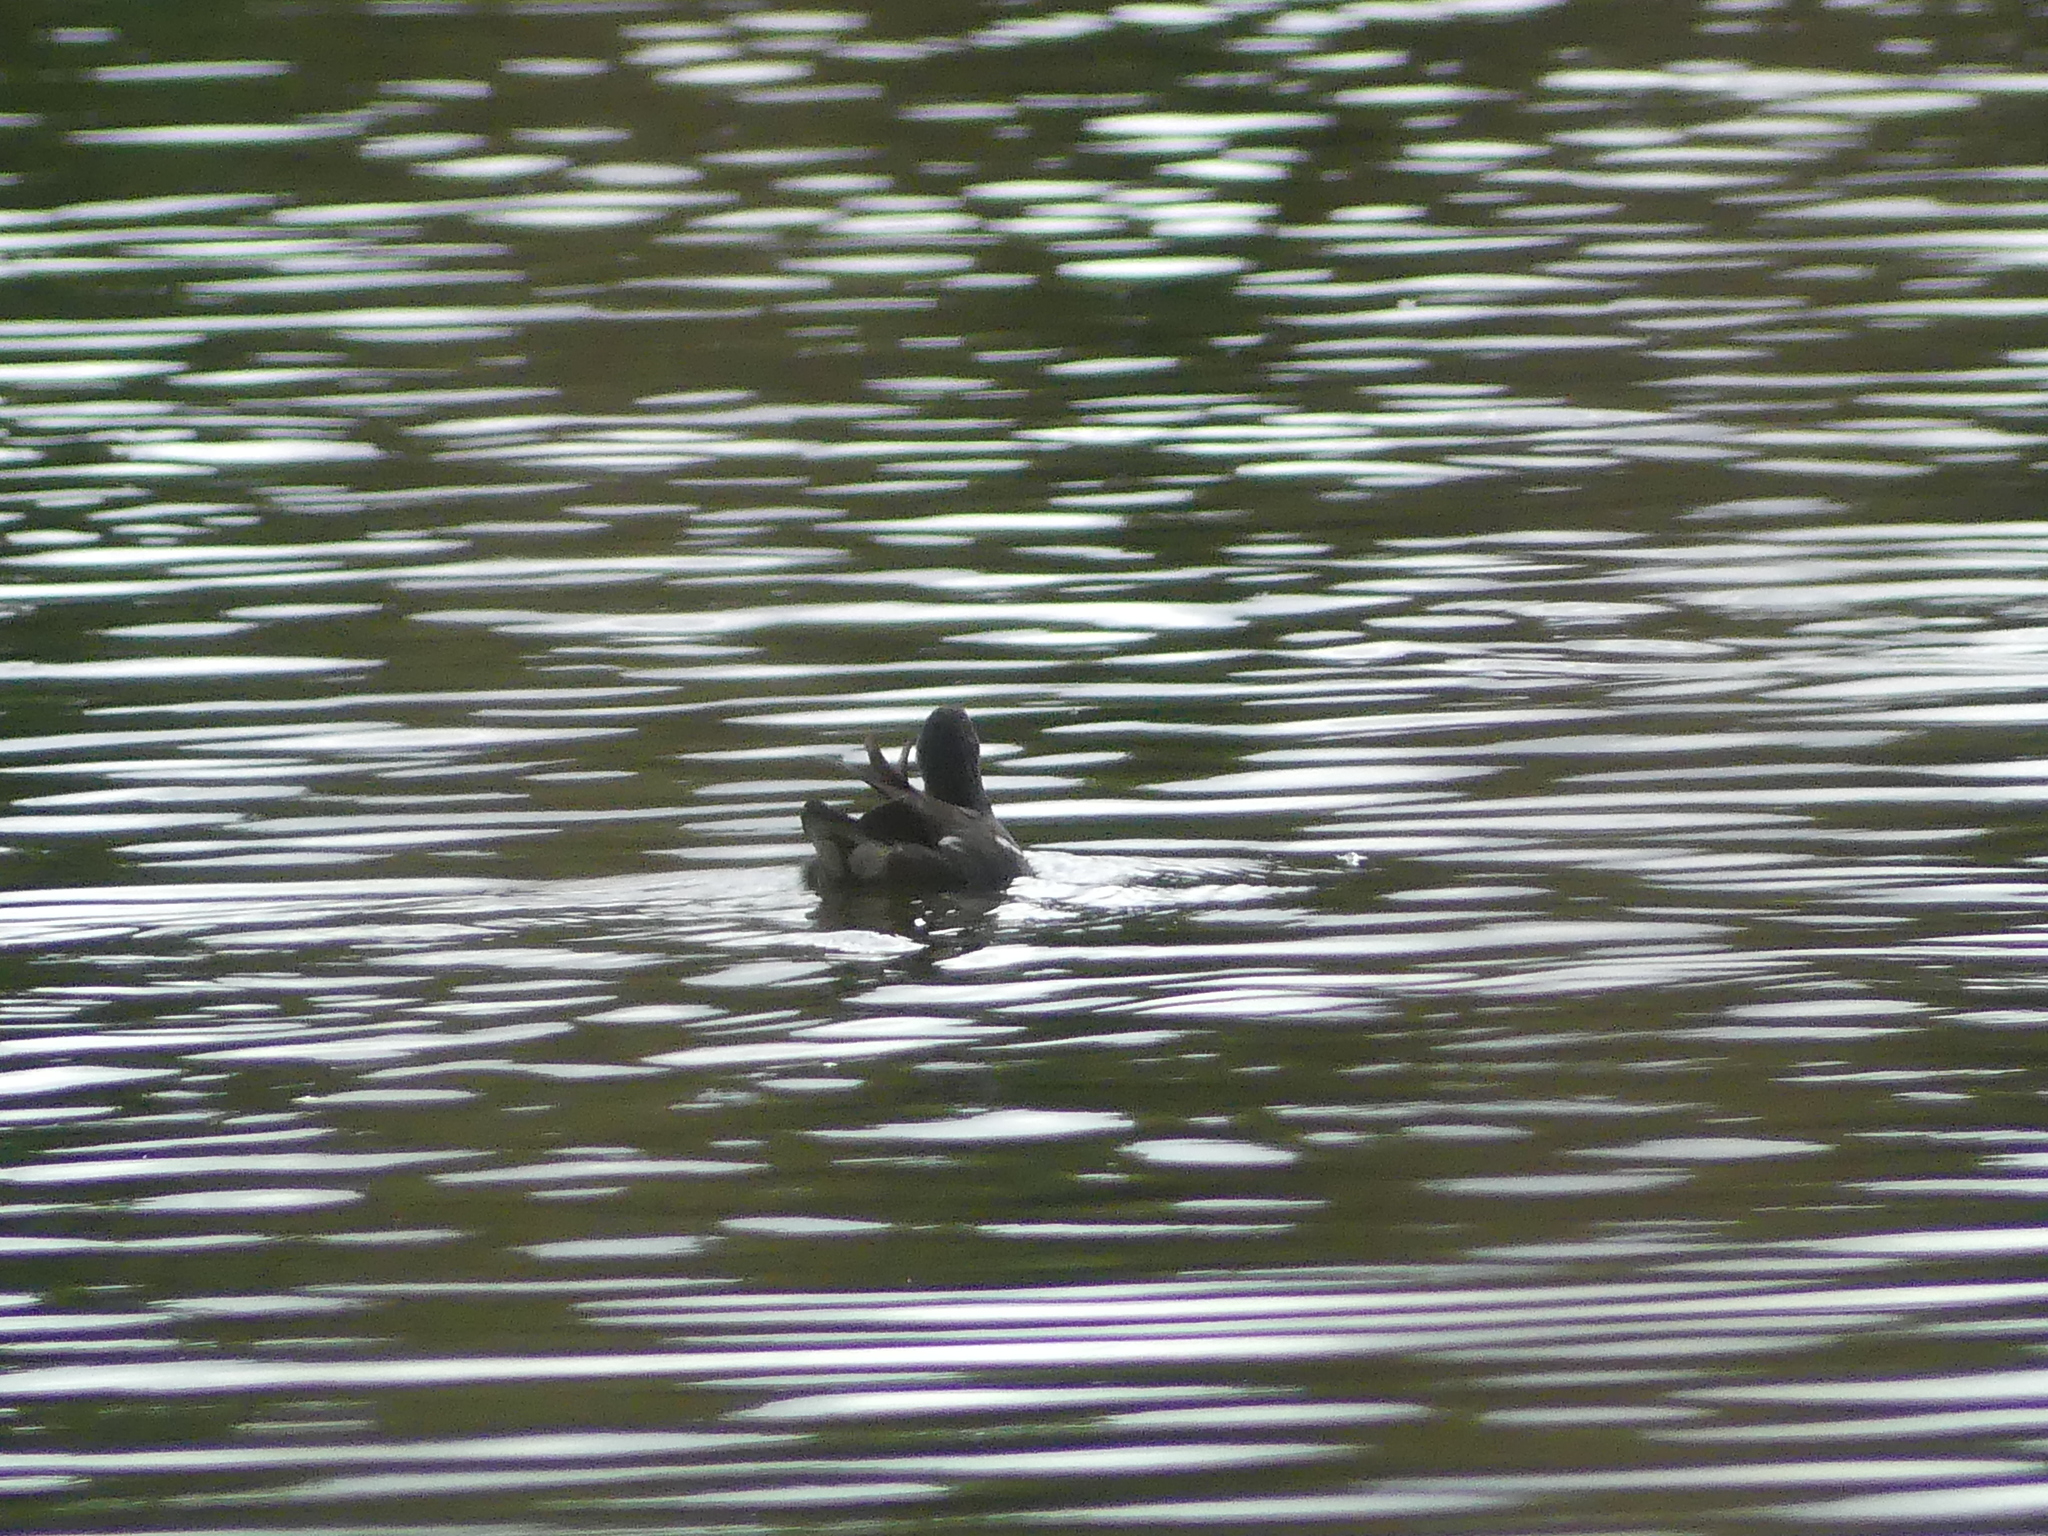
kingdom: Animalia
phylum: Chordata
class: Aves
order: Gruiformes
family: Rallidae
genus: Gallinula
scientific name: Gallinula chloropus
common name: Common moorhen
